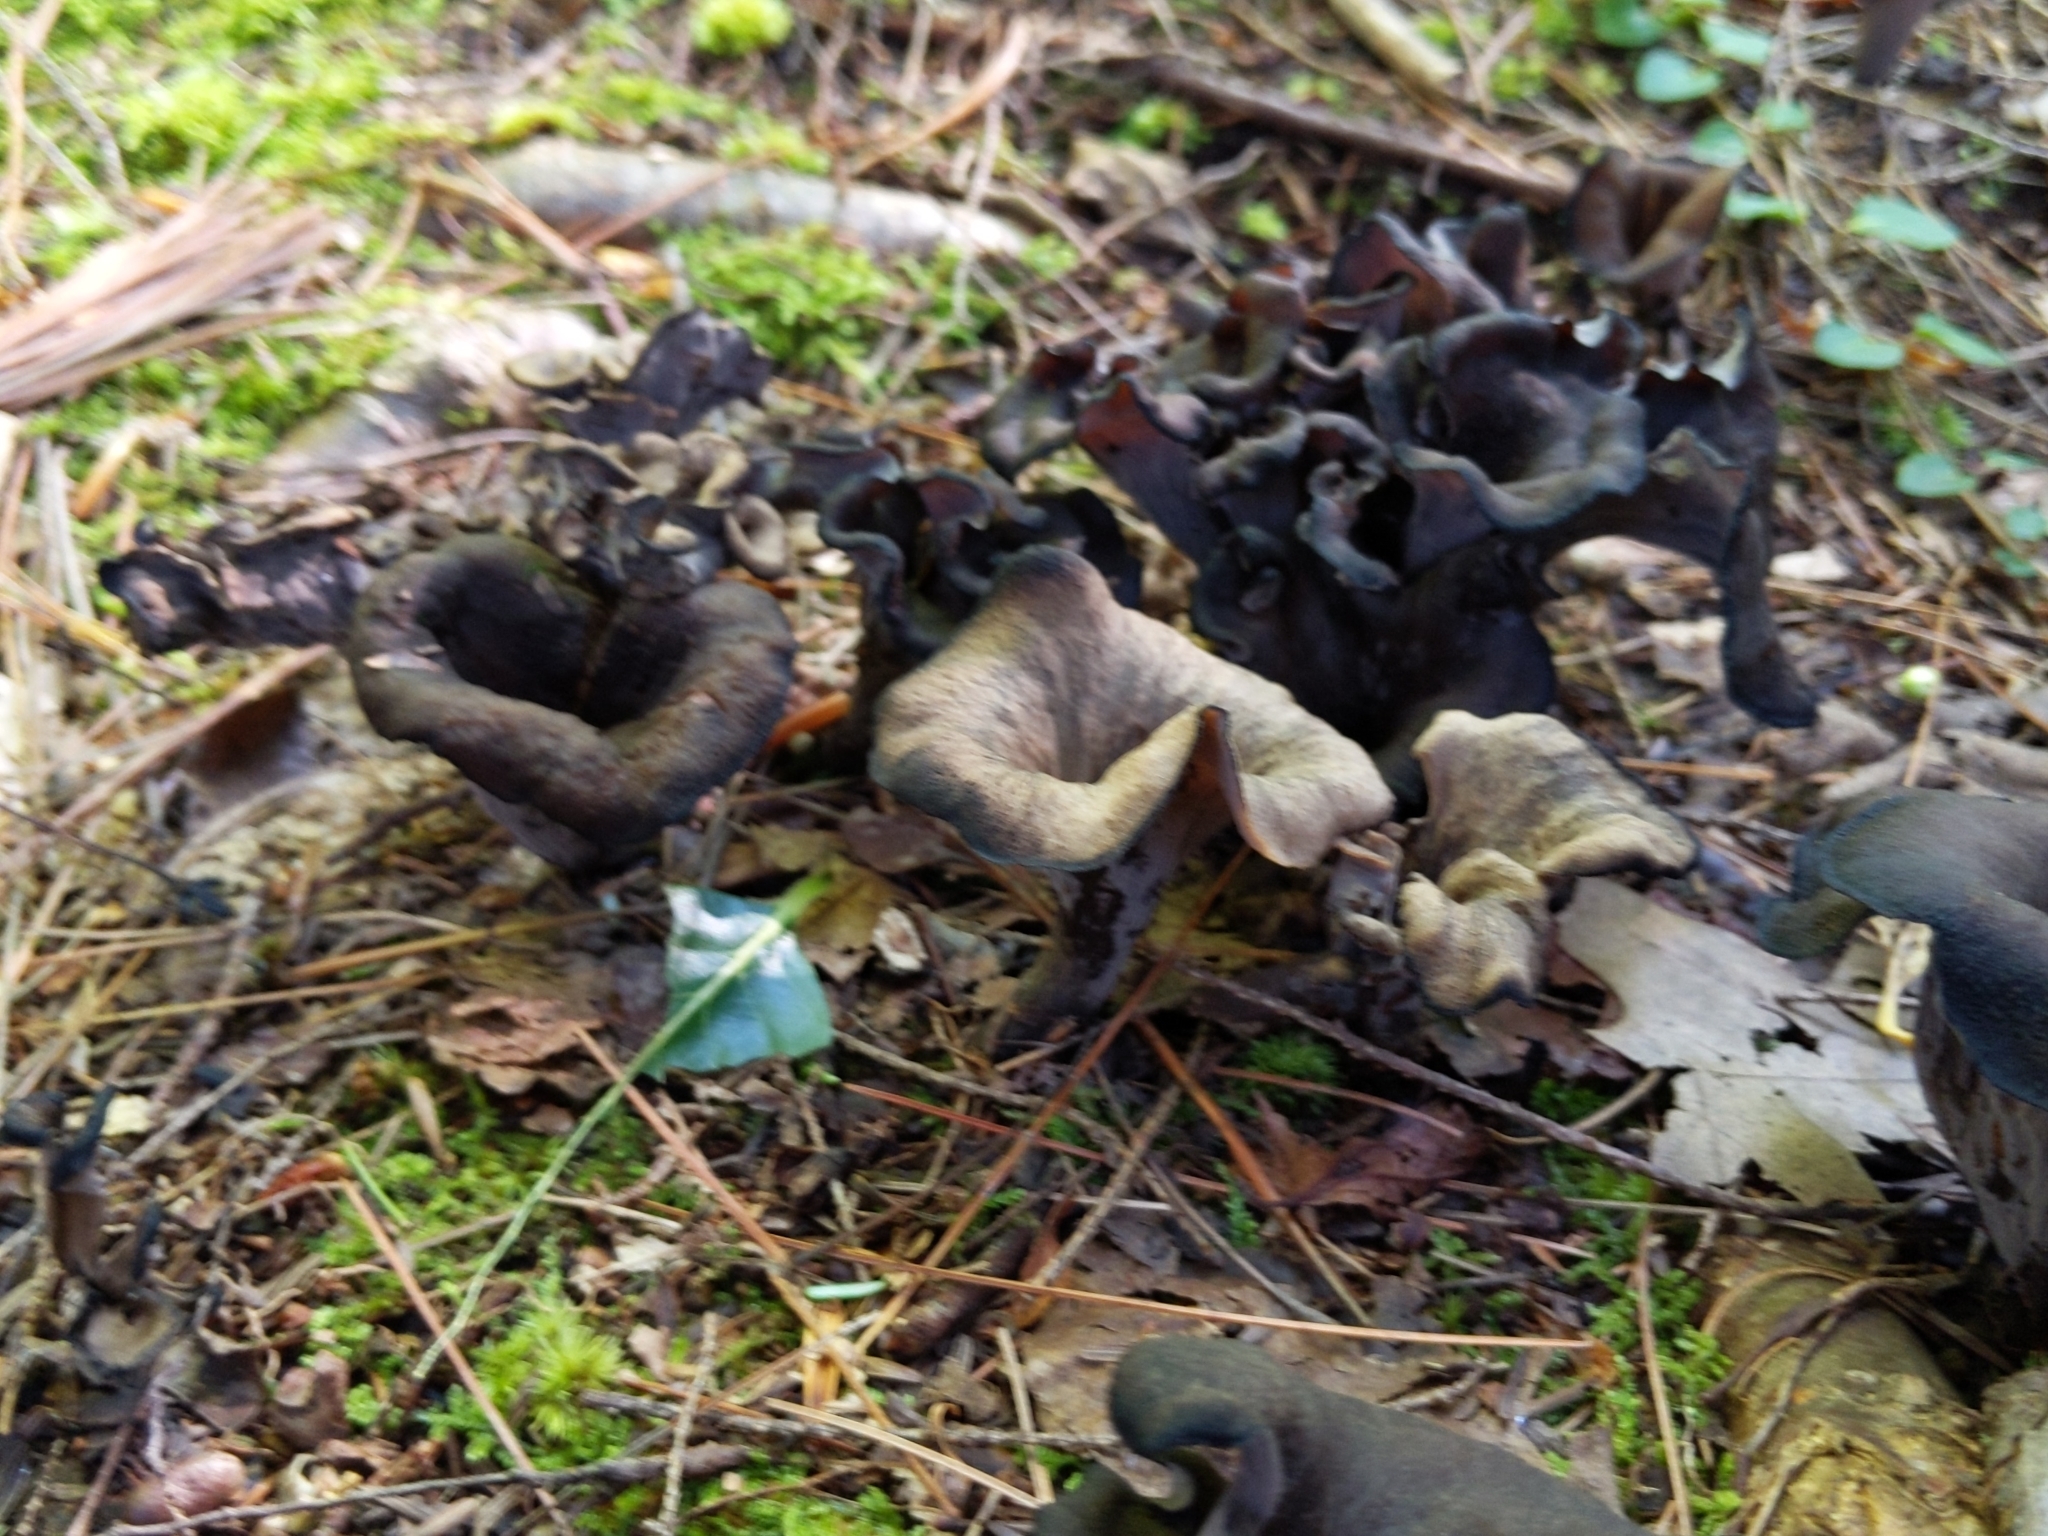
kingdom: Fungi
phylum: Basidiomycota
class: Agaricomycetes
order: Cantharellales
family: Hydnaceae
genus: Craterellus
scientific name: Craterellus cornucopioides
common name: Horn of plenty
